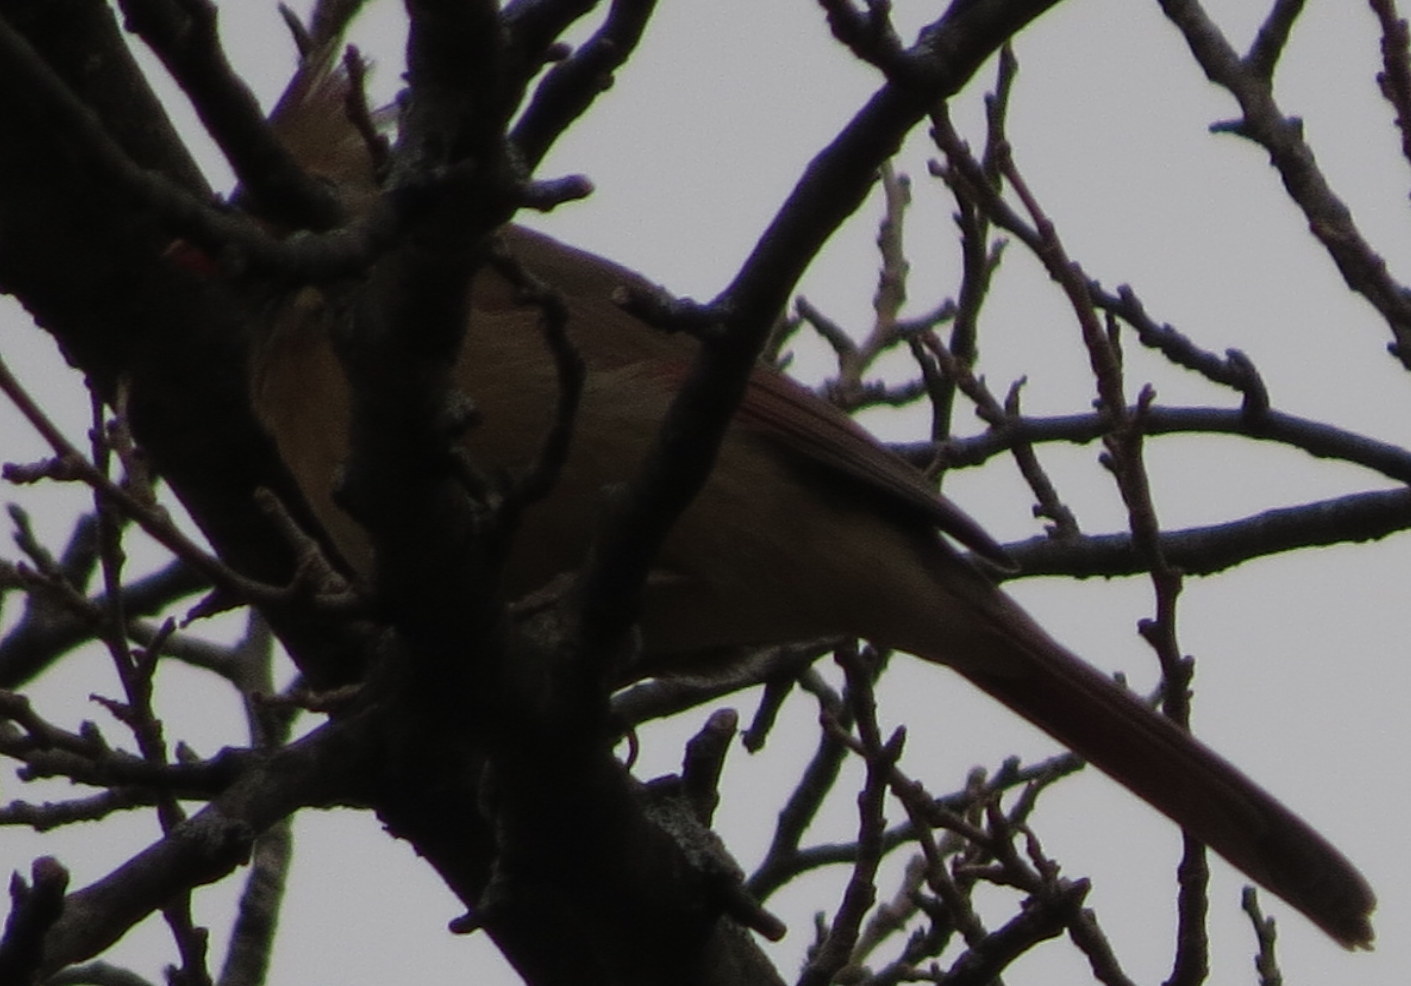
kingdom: Animalia
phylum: Chordata
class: Aves
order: Passeriformes
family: Cardinalidae
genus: Cardinalis
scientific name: Cardinalis cardinalis
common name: Northern cardinal
